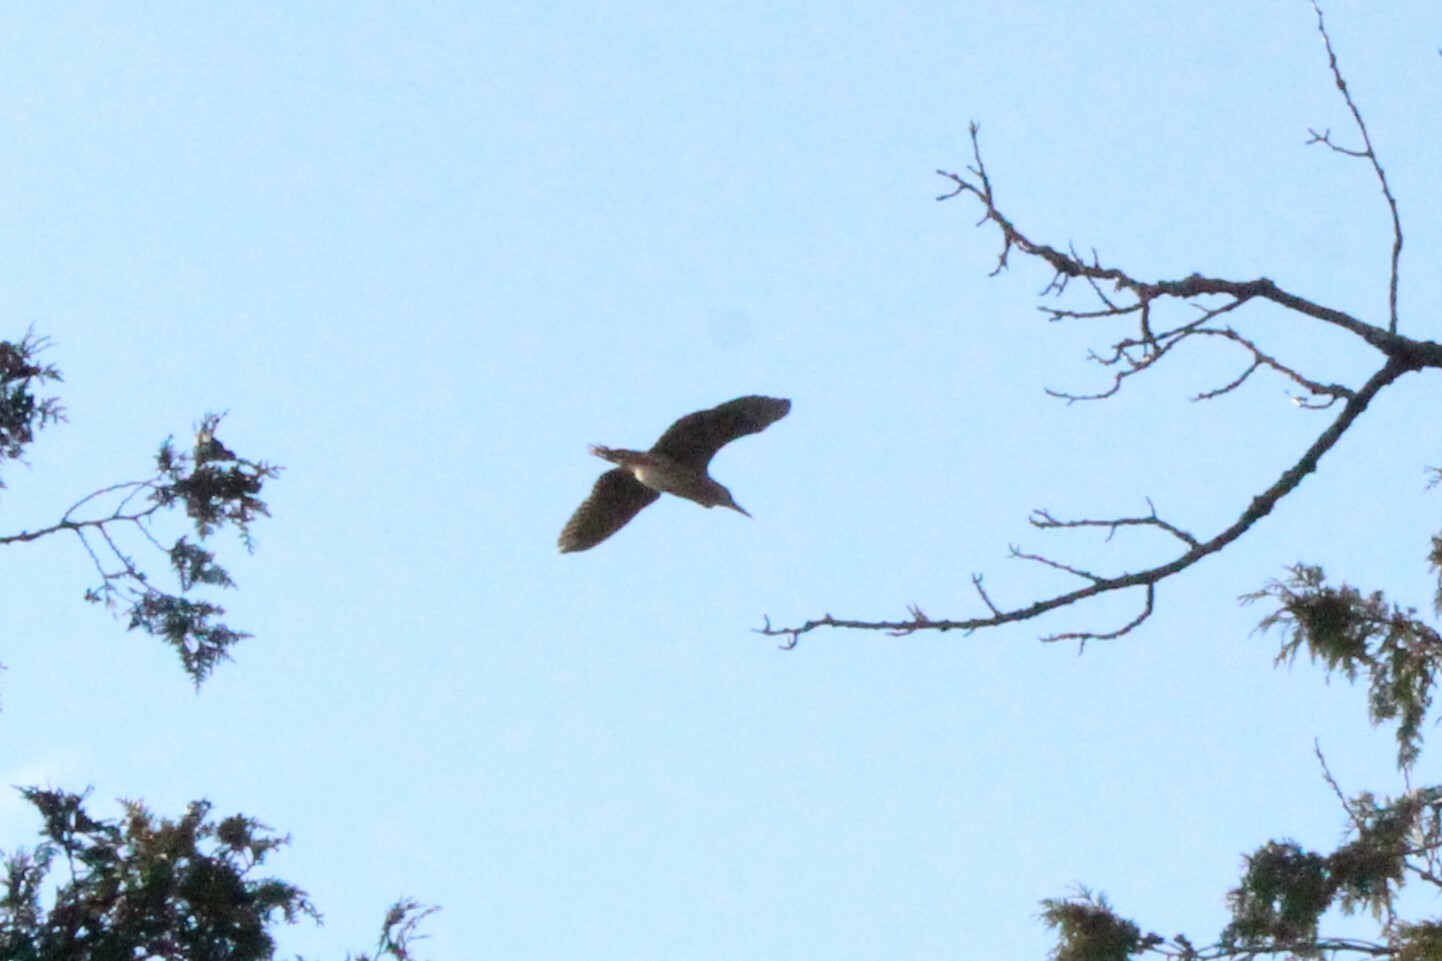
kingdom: Animalia
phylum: Chordata
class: Aves
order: Pelecaniformes
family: Ardeidae
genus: Nycticorax
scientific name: Nycticorax nycticorax
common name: Black-crowned night heron
